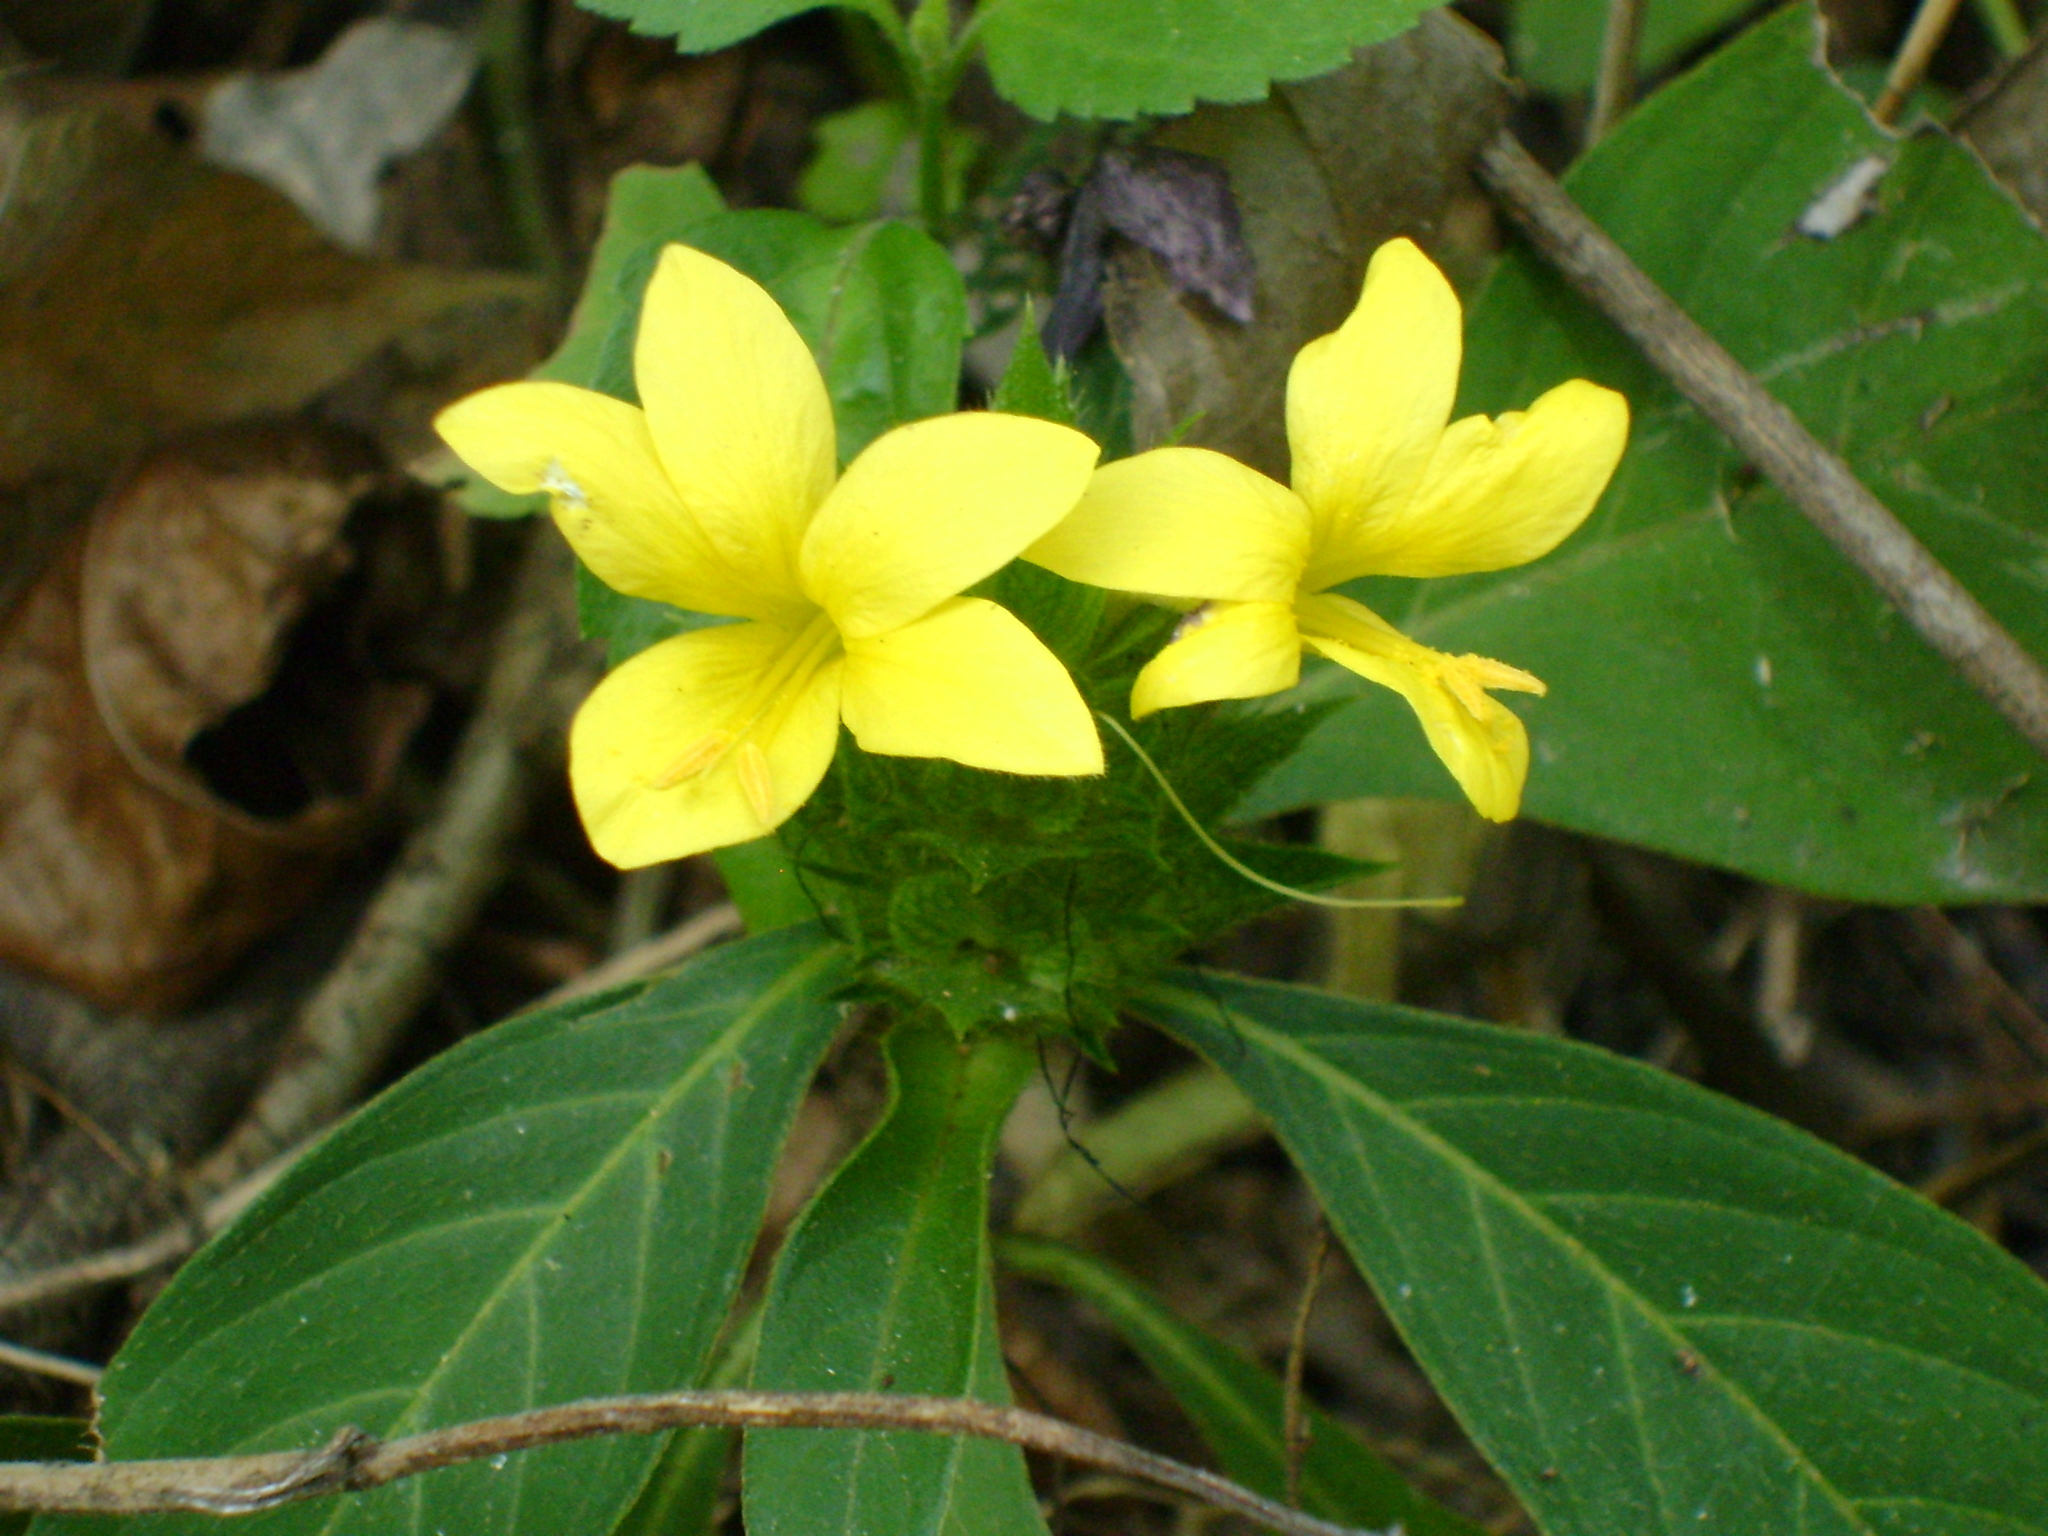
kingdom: Plantae
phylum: Tracheophyta
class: Magnoliopsida
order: Lamiales
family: Acanthaceae
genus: Barleria
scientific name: Barleria oenotheroides
